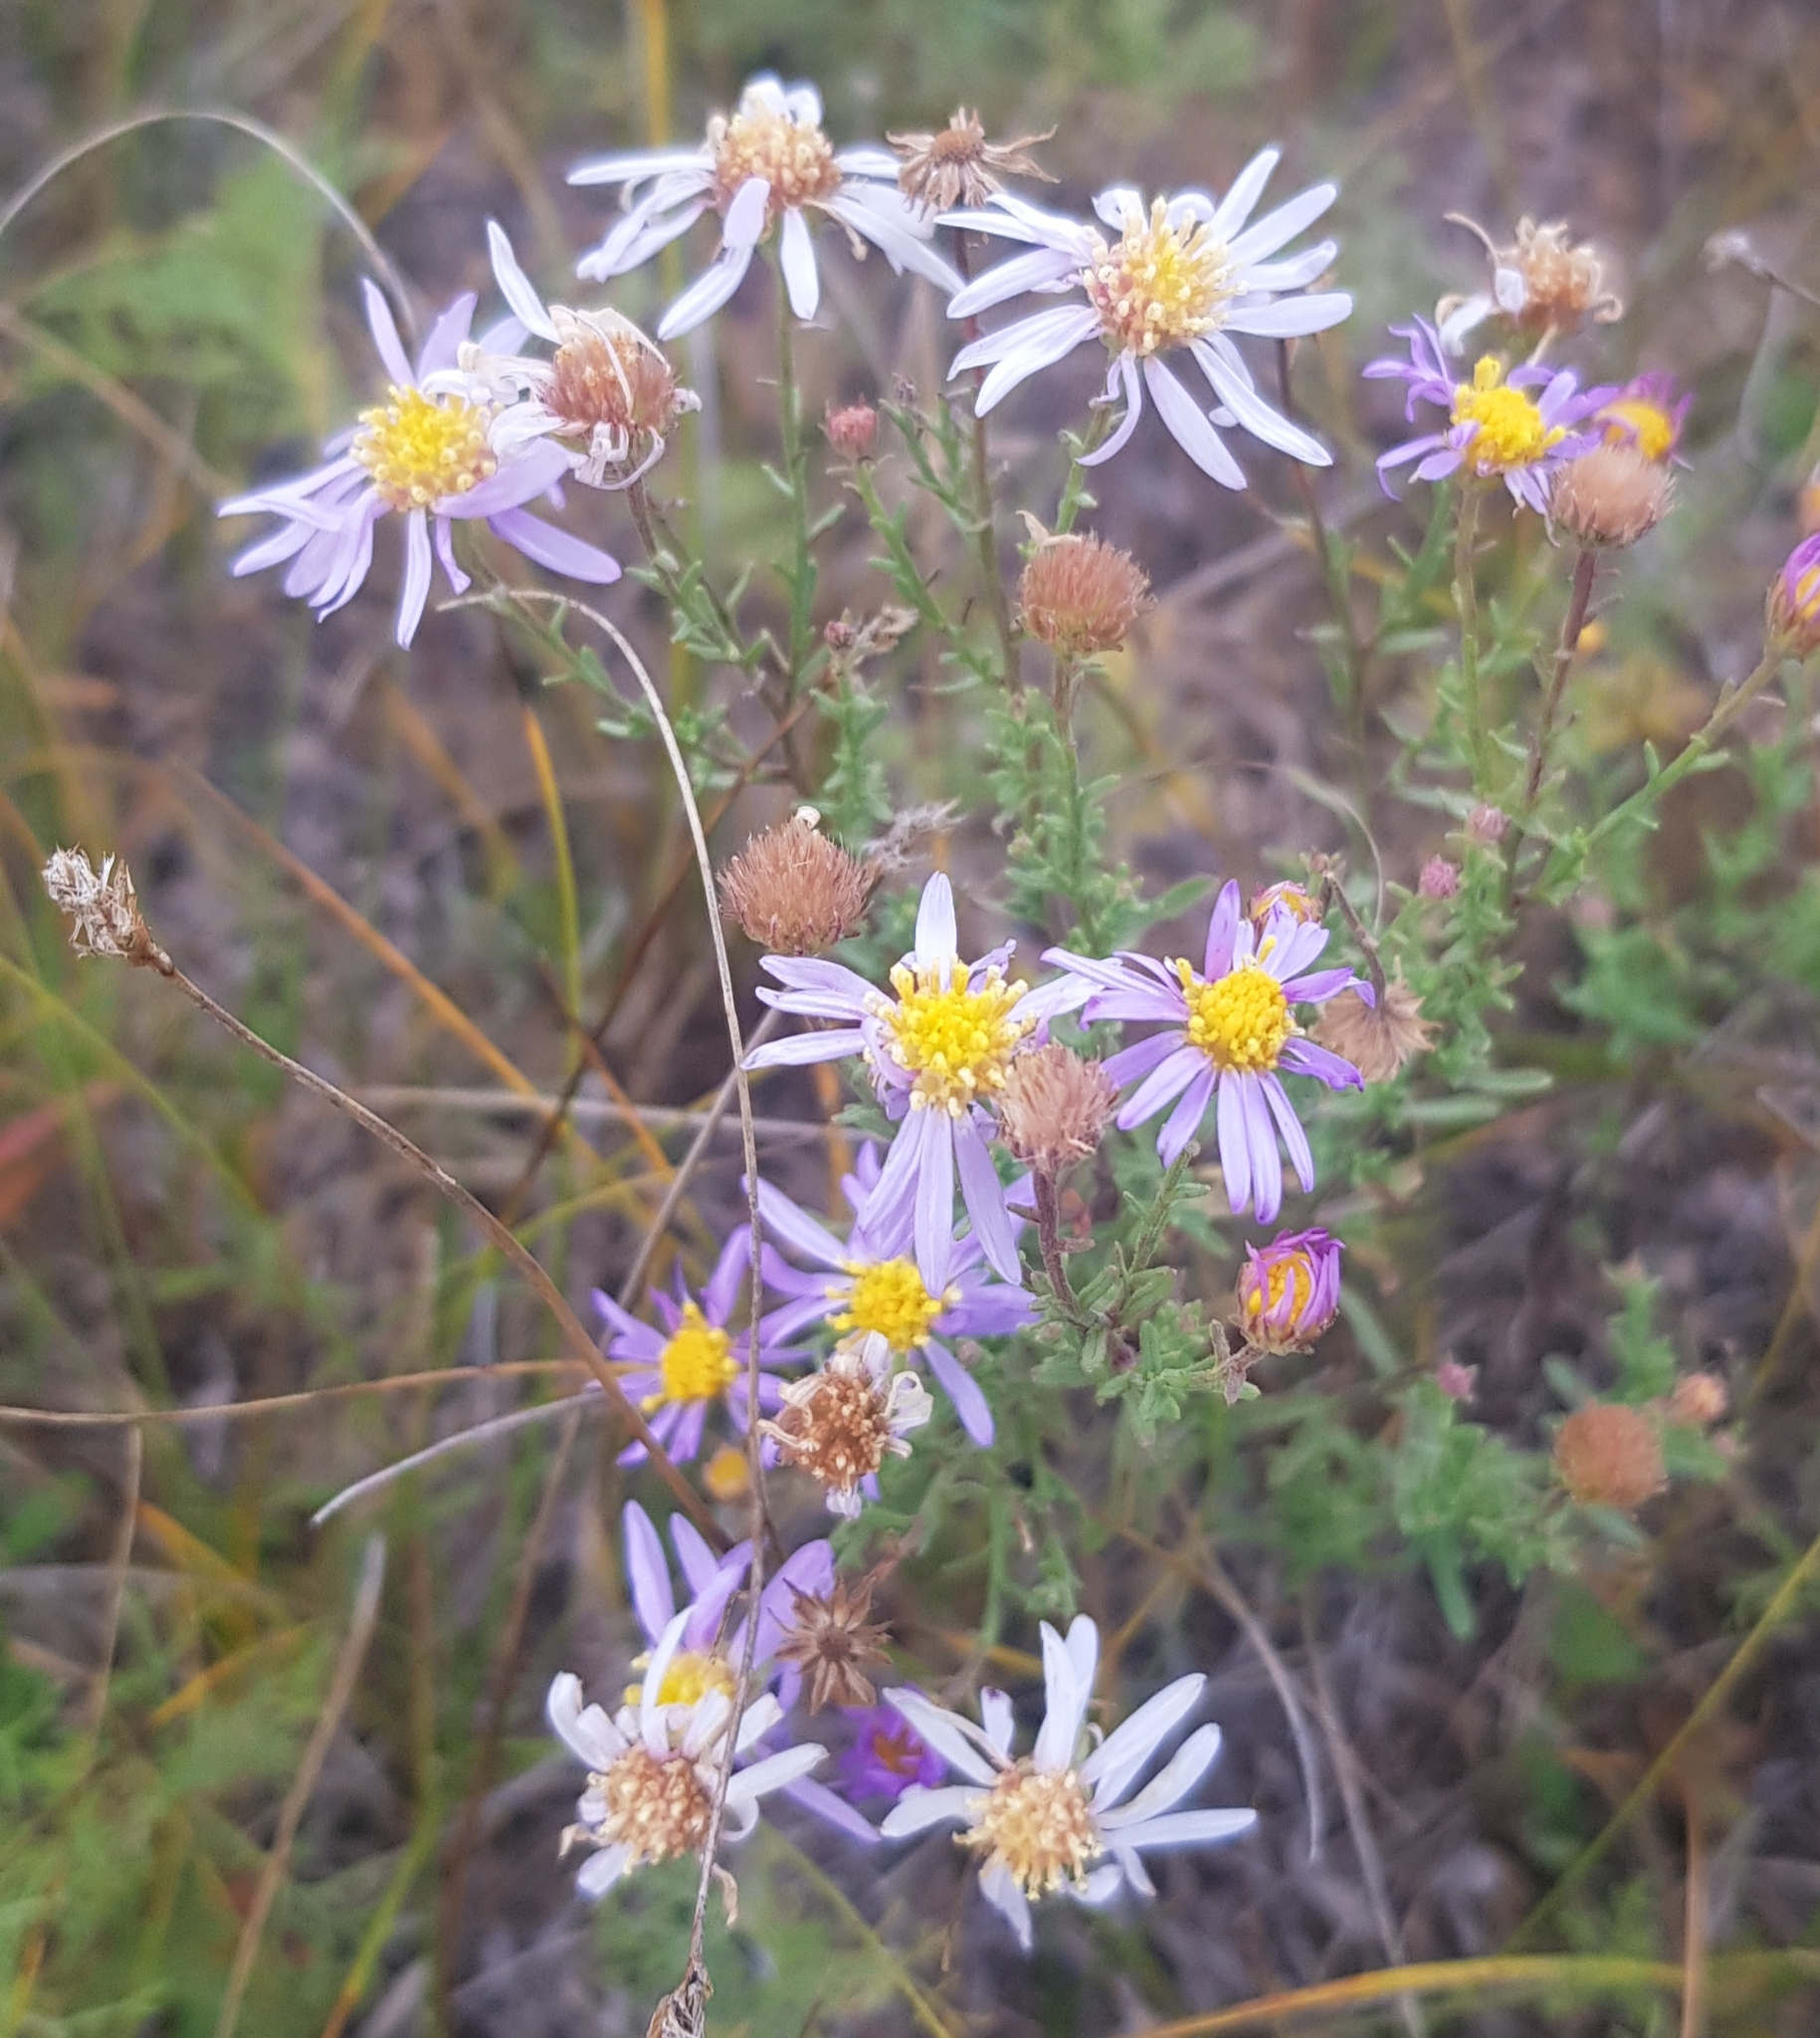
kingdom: Plantae
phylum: Tracheophyta
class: Magnoliopsida
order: Asterales
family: Asteraceae
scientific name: Asteraceae
